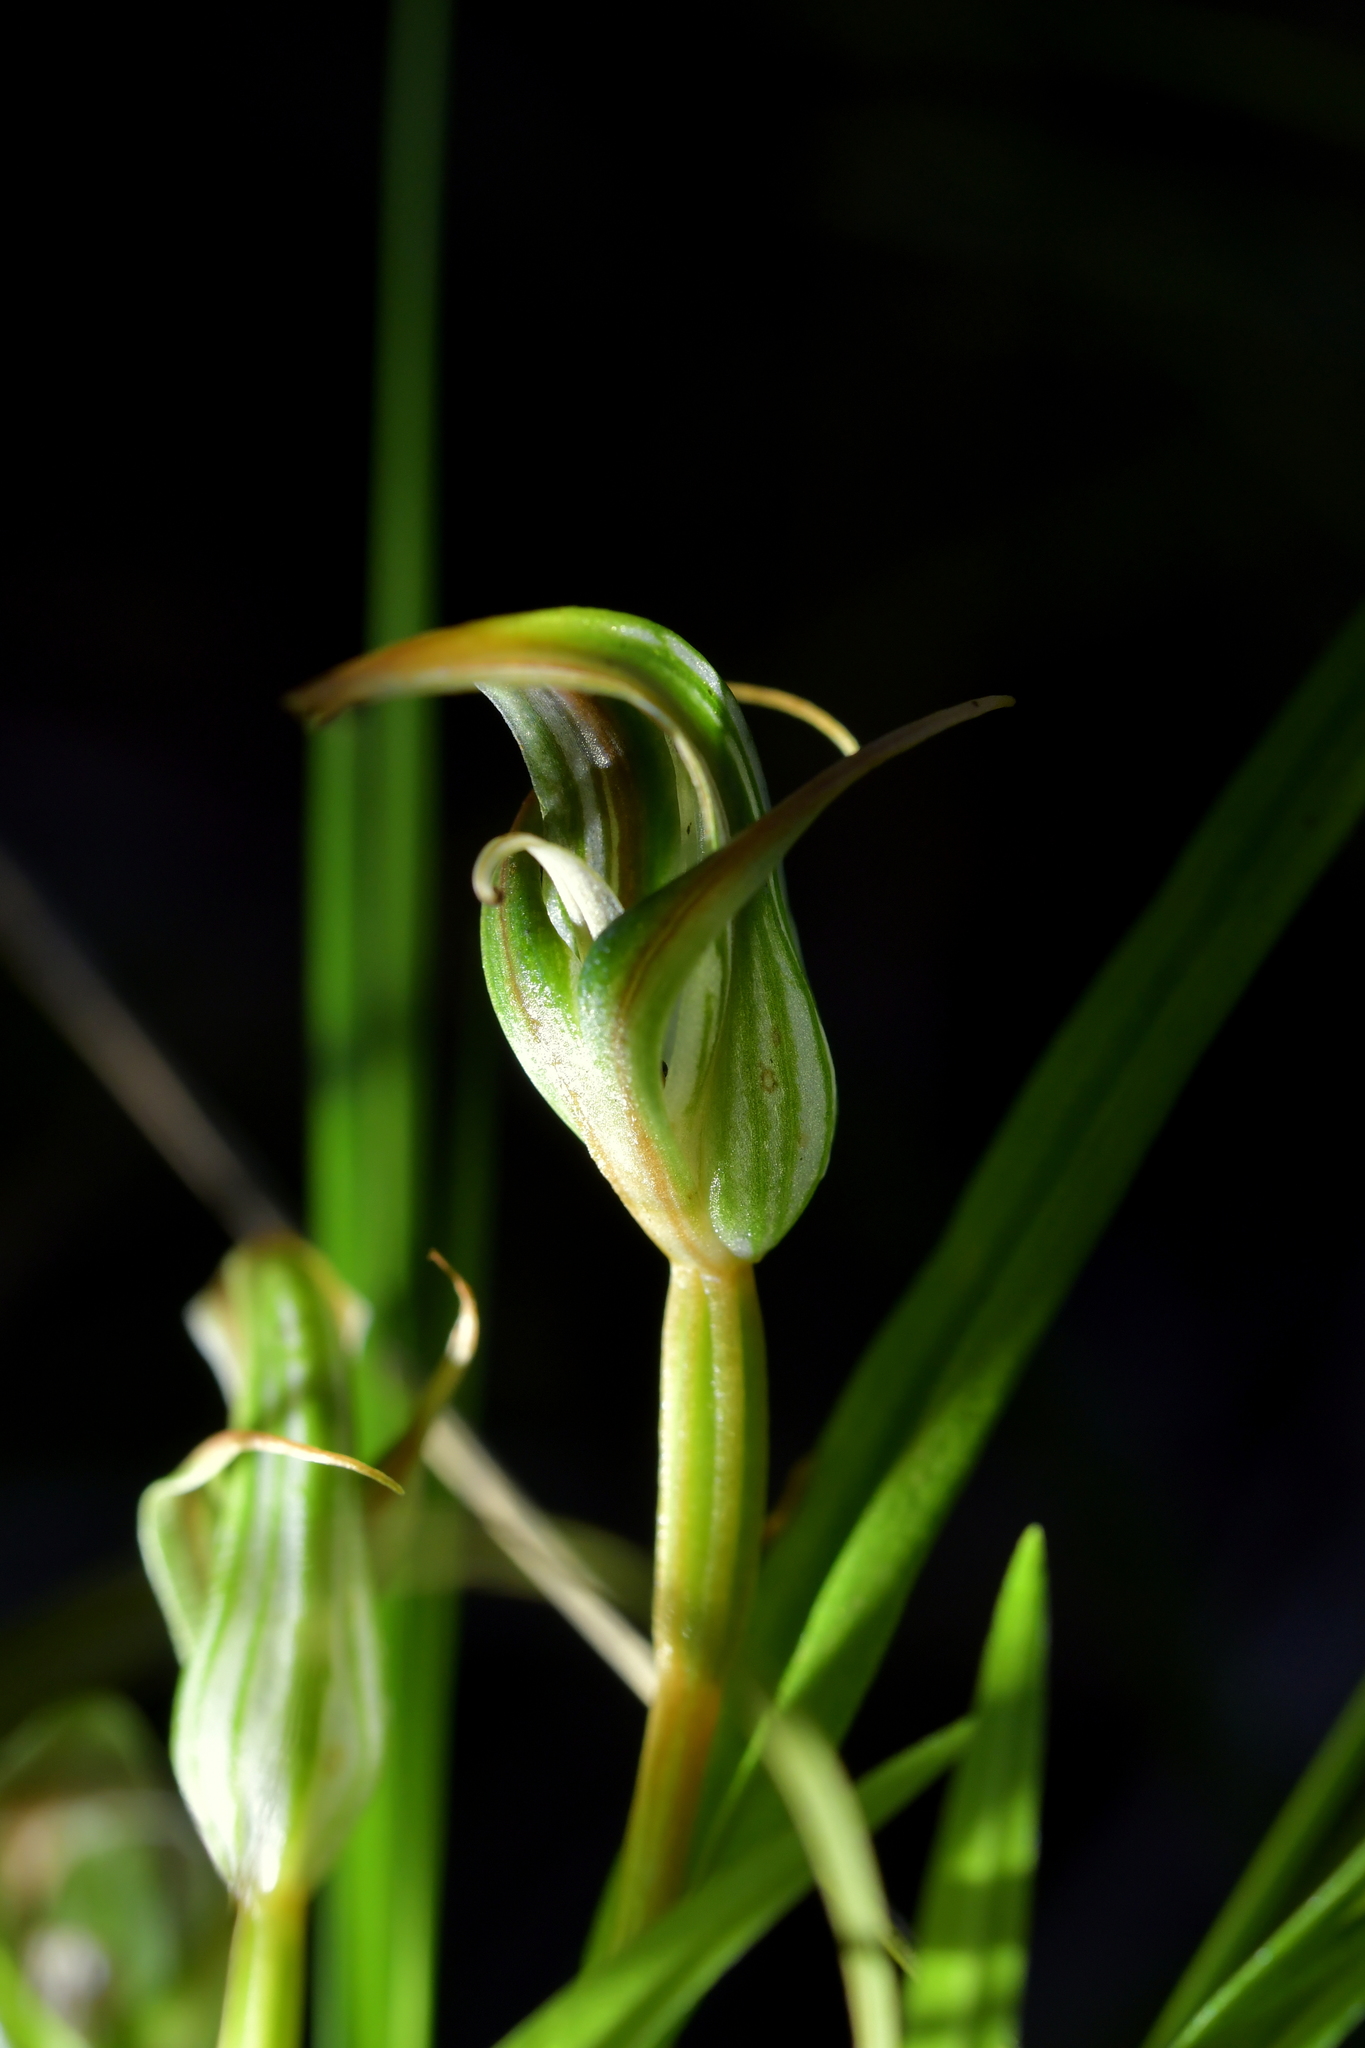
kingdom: Plantae
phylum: Tracheophyta
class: Liliopsida
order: Asparagales
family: Orchidaceae
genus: Pterostylis
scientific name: Pterostylis irsoniana
